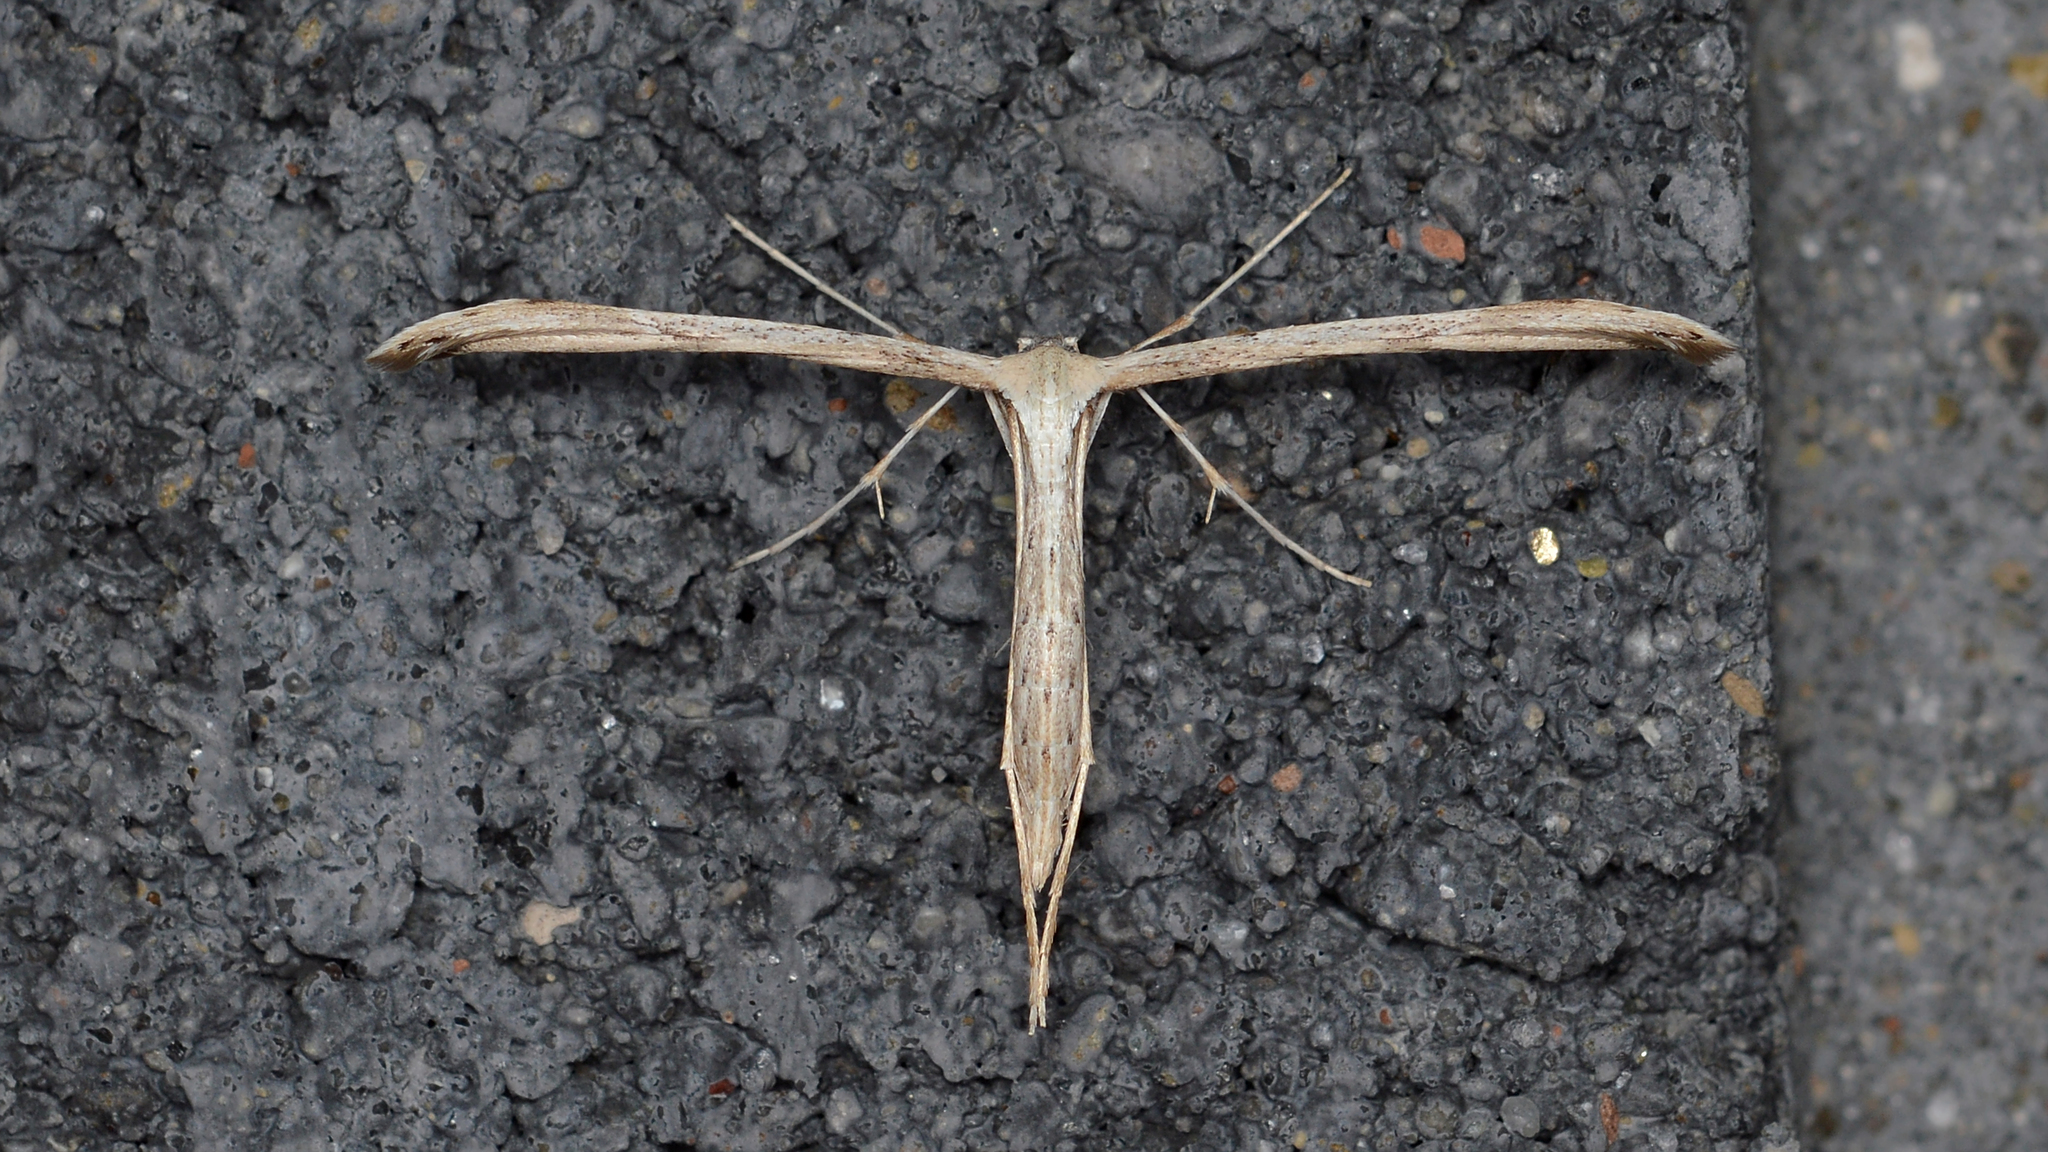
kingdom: Animalia
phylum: Arthropoda
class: Insecta
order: Lepidoptera
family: Pterophoridae
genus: Emmelina
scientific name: Emmelina monodactyla
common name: Common plume
